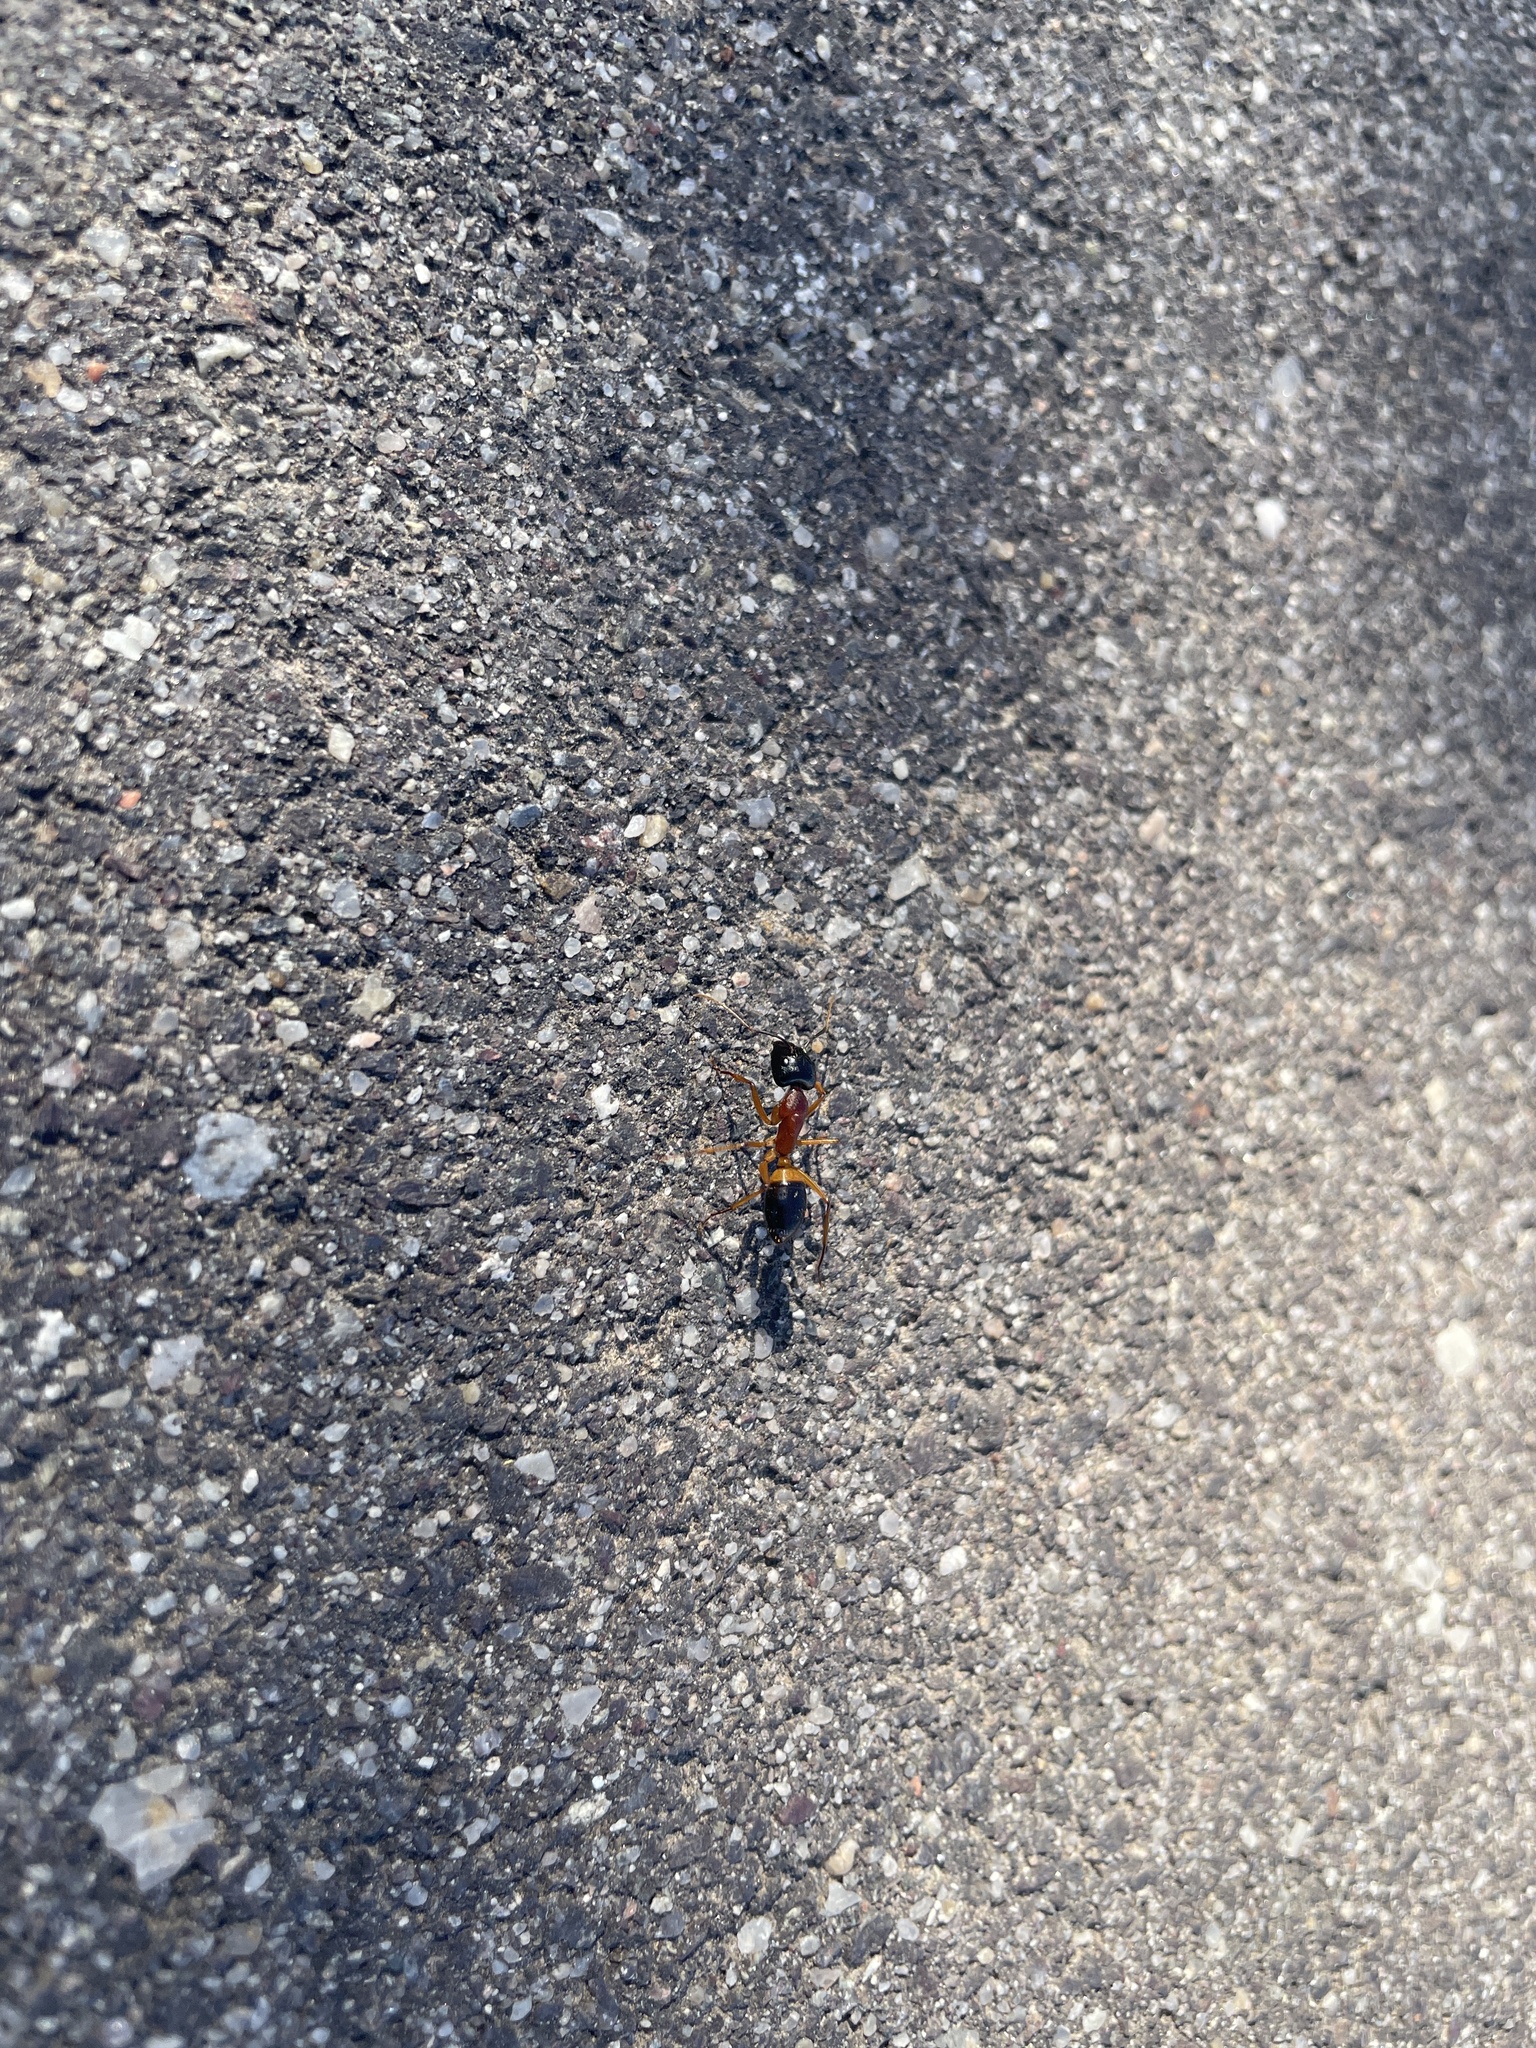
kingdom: Animalia
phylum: Arthropoda
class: Insecta
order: Hymenoptera
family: Formicidae
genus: Camponotus
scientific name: Camponotus consobrinus
